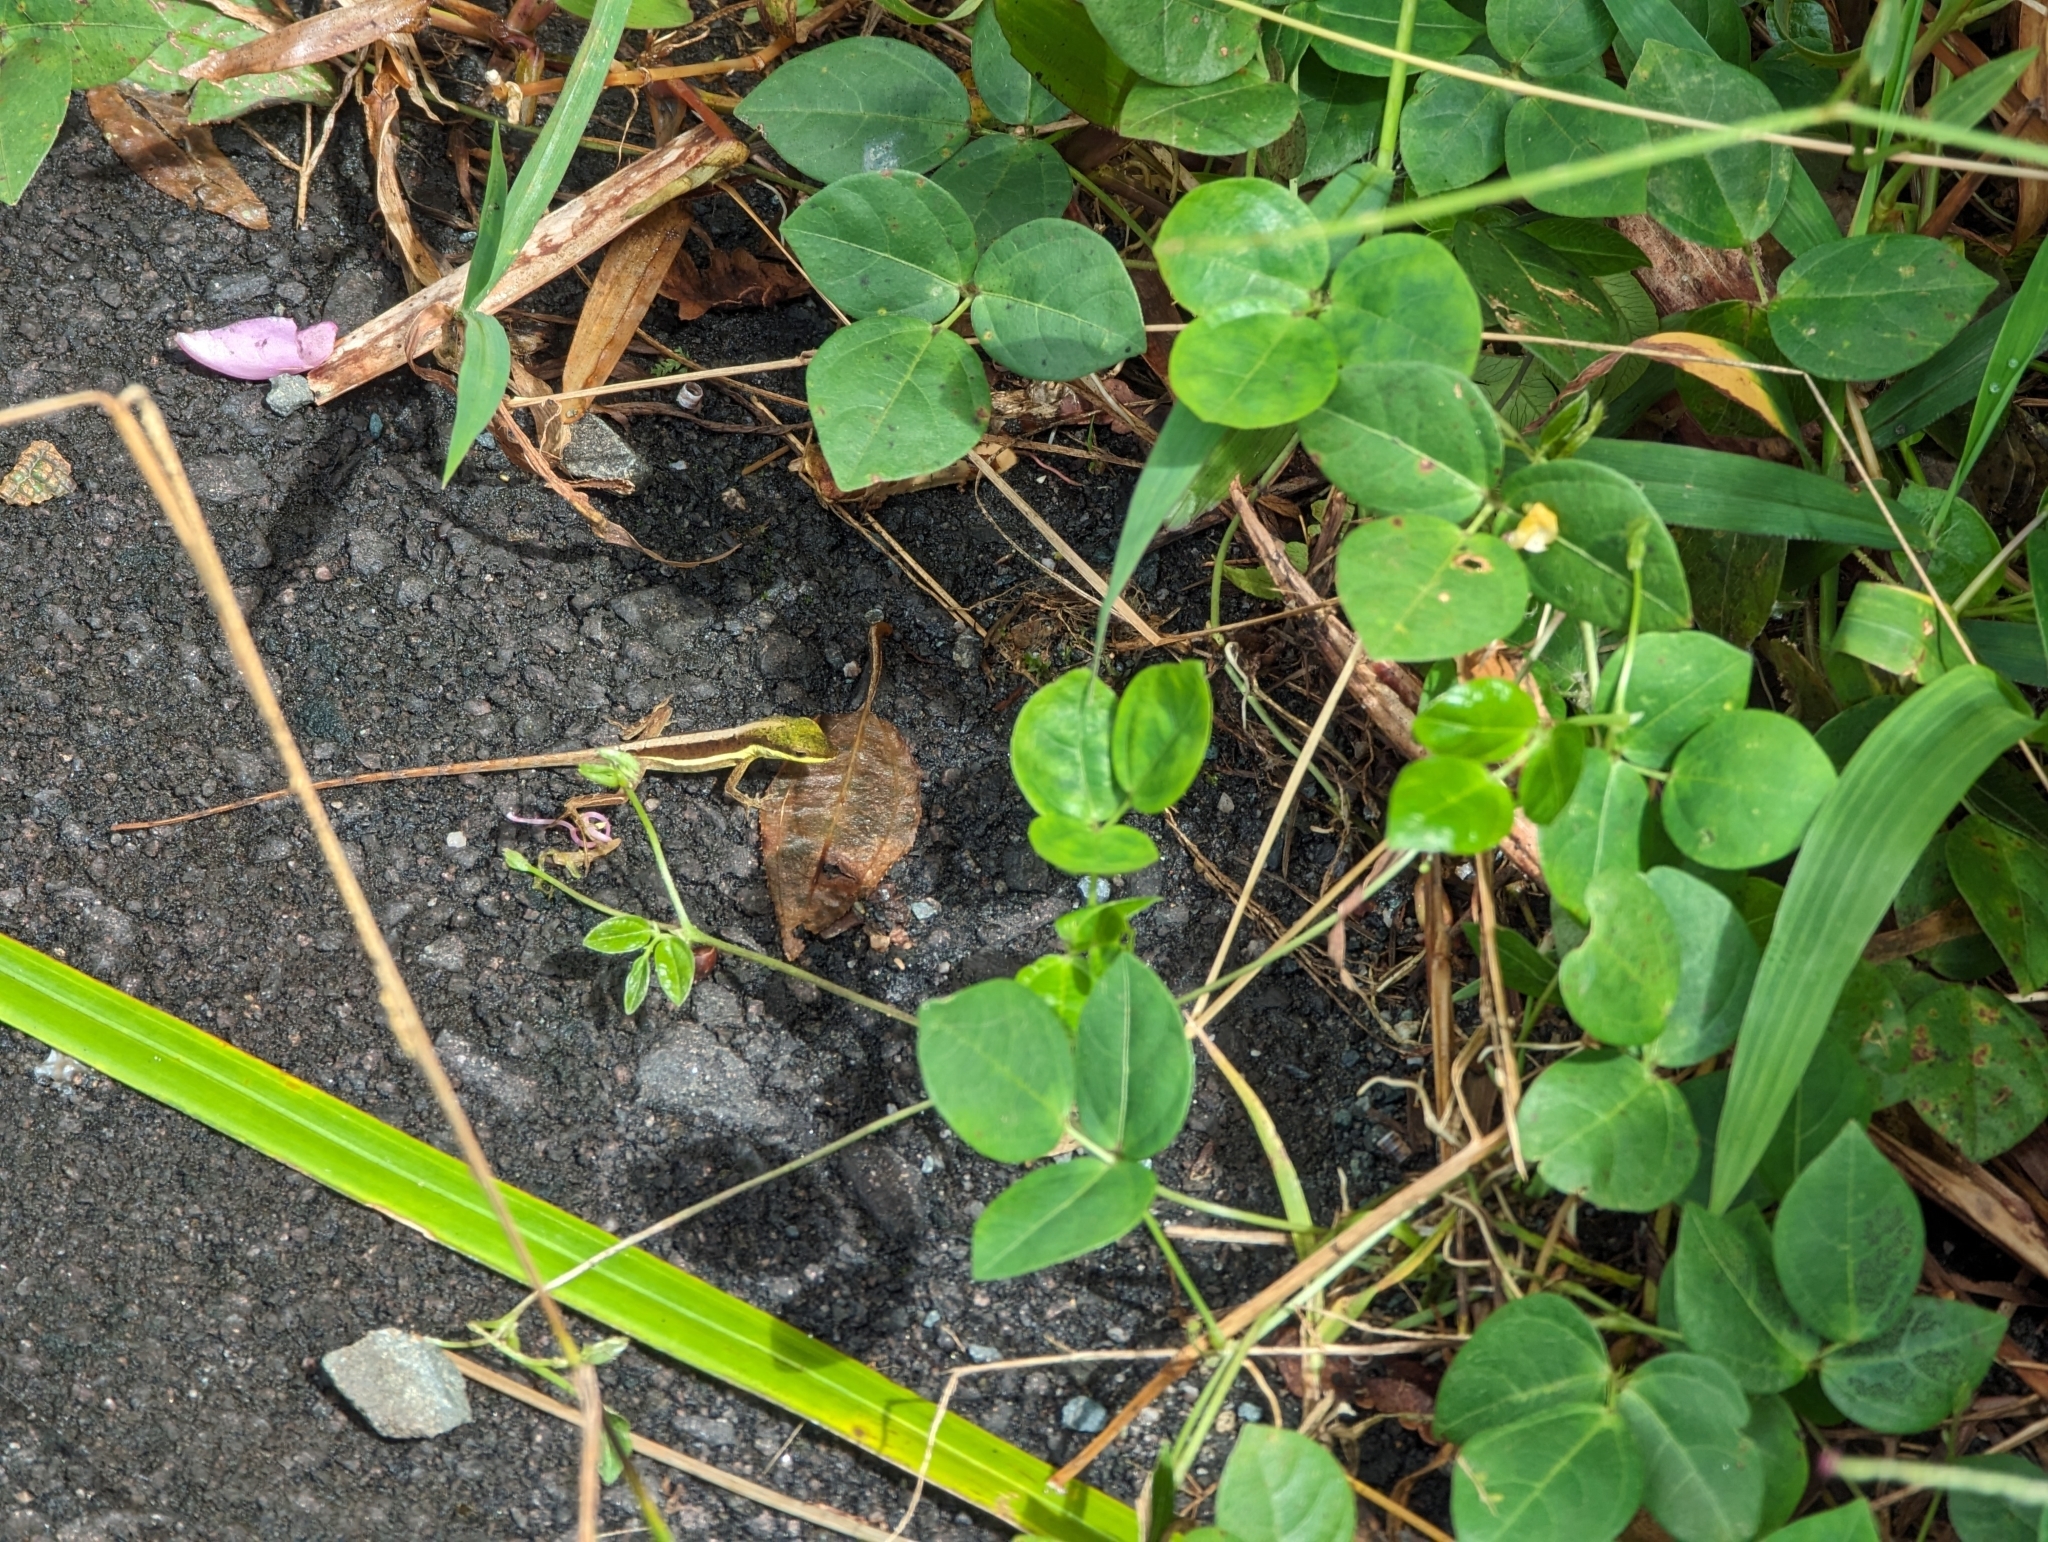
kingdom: Animalia
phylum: Chordata
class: Squamata
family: Dactyloidae
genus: Anolis
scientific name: Anolis krugi
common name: Krug's anole
